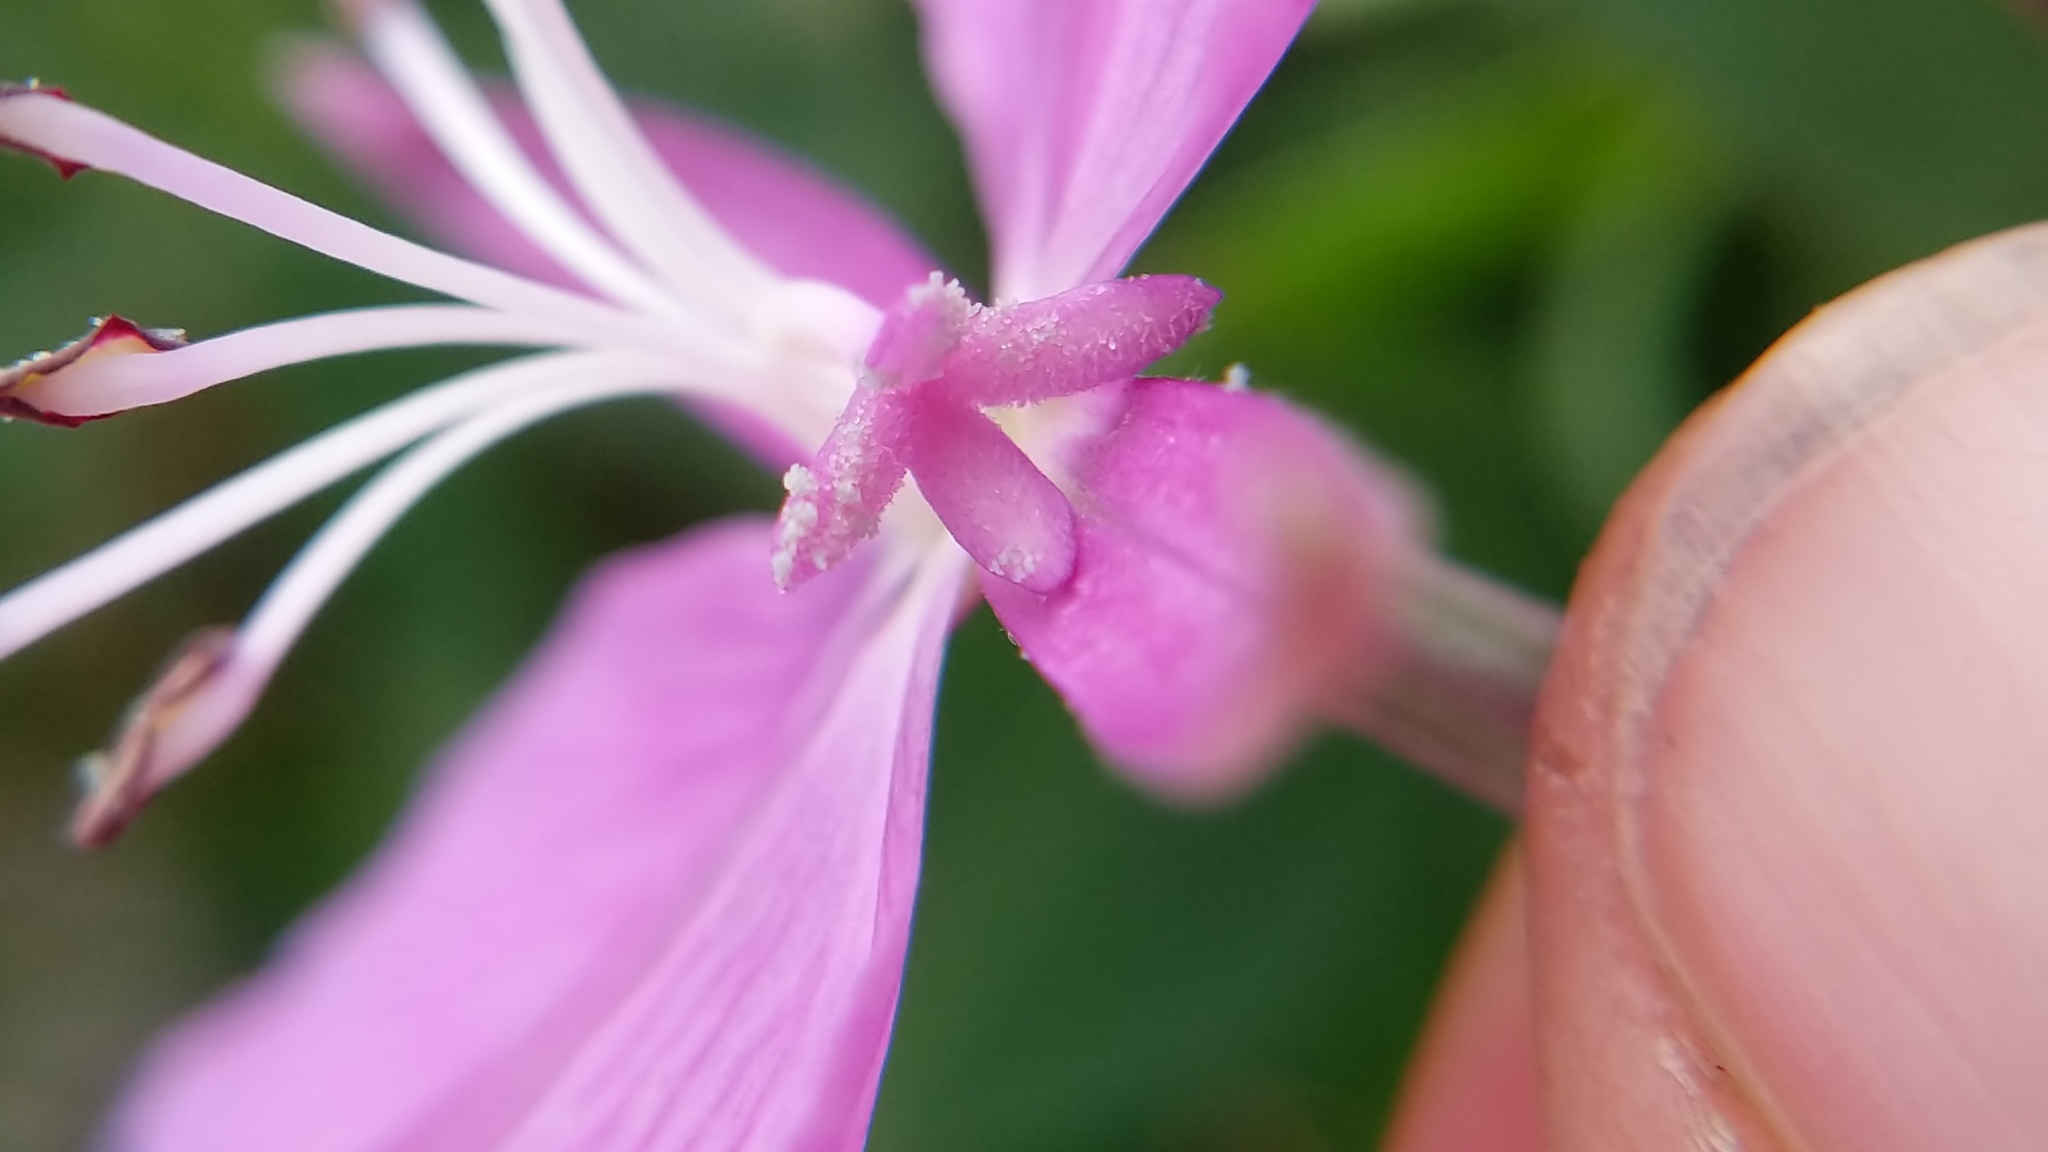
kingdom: Plantae
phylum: Tracheophyta
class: Magnoliopsida
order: Myrtales
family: Onagraceae
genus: Chamaenerion
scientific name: Chamaenerion latifolium
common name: Dwarf fireweed
